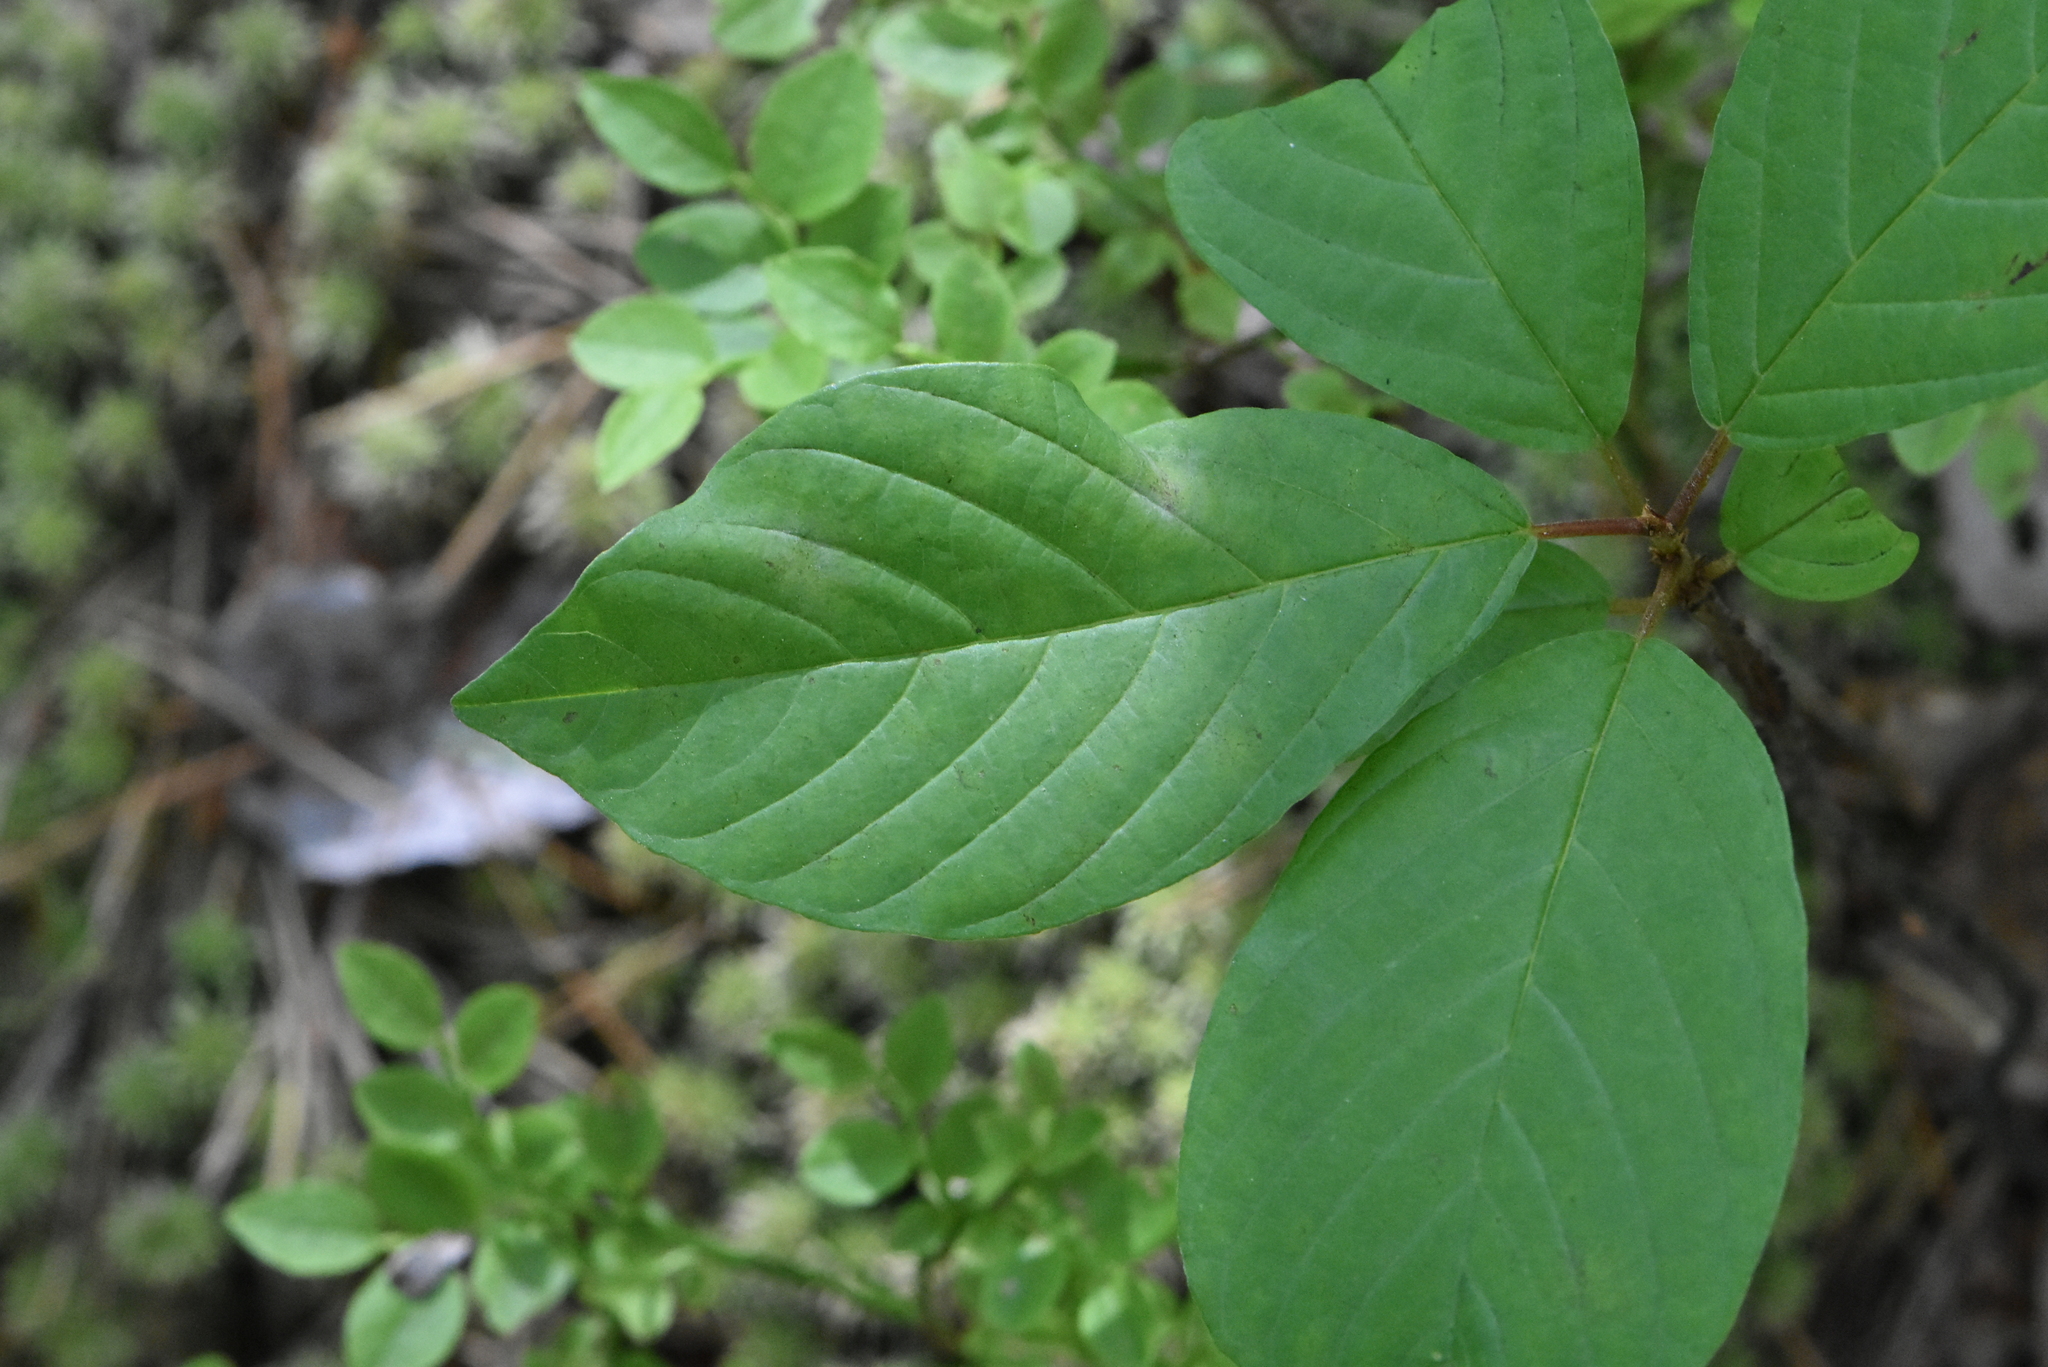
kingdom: Plantae
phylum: Tracheophyta
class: Magnoliopsida
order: Rosales
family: Rhamnaceae
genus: Frangula
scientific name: Frangula alnus
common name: Alder buckthorn
